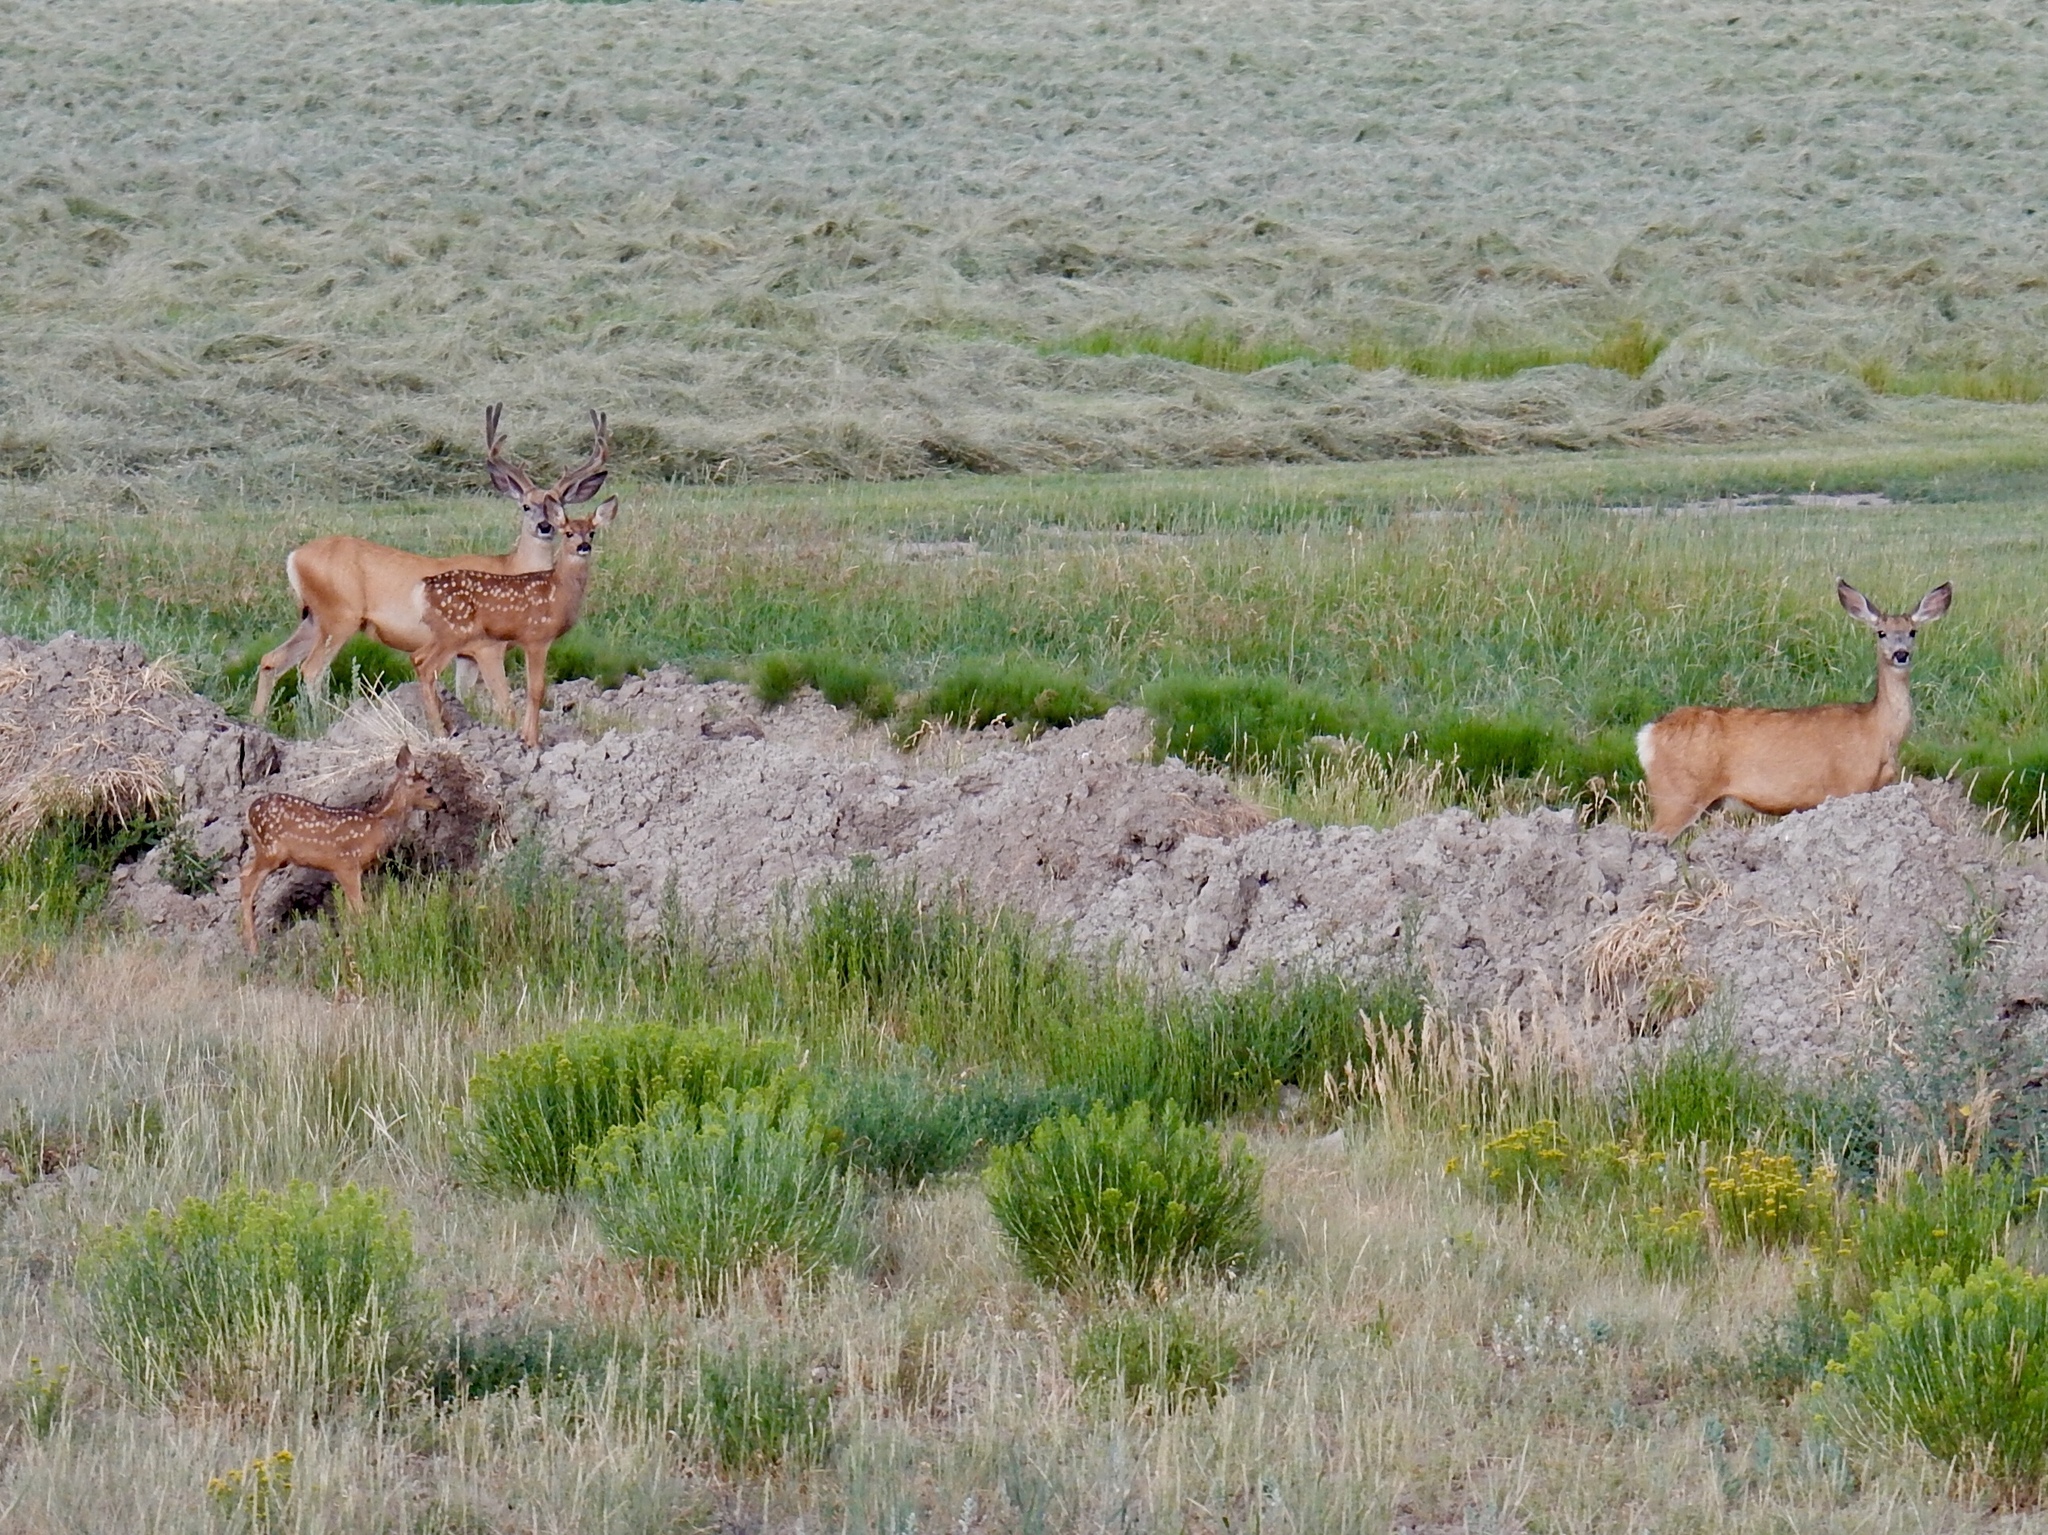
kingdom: Animalia
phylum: Chordata
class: Mammalia
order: Artiodactyla
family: Cervidae
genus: Odocoileus
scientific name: Odocoileus hemionus
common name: Mule deer
